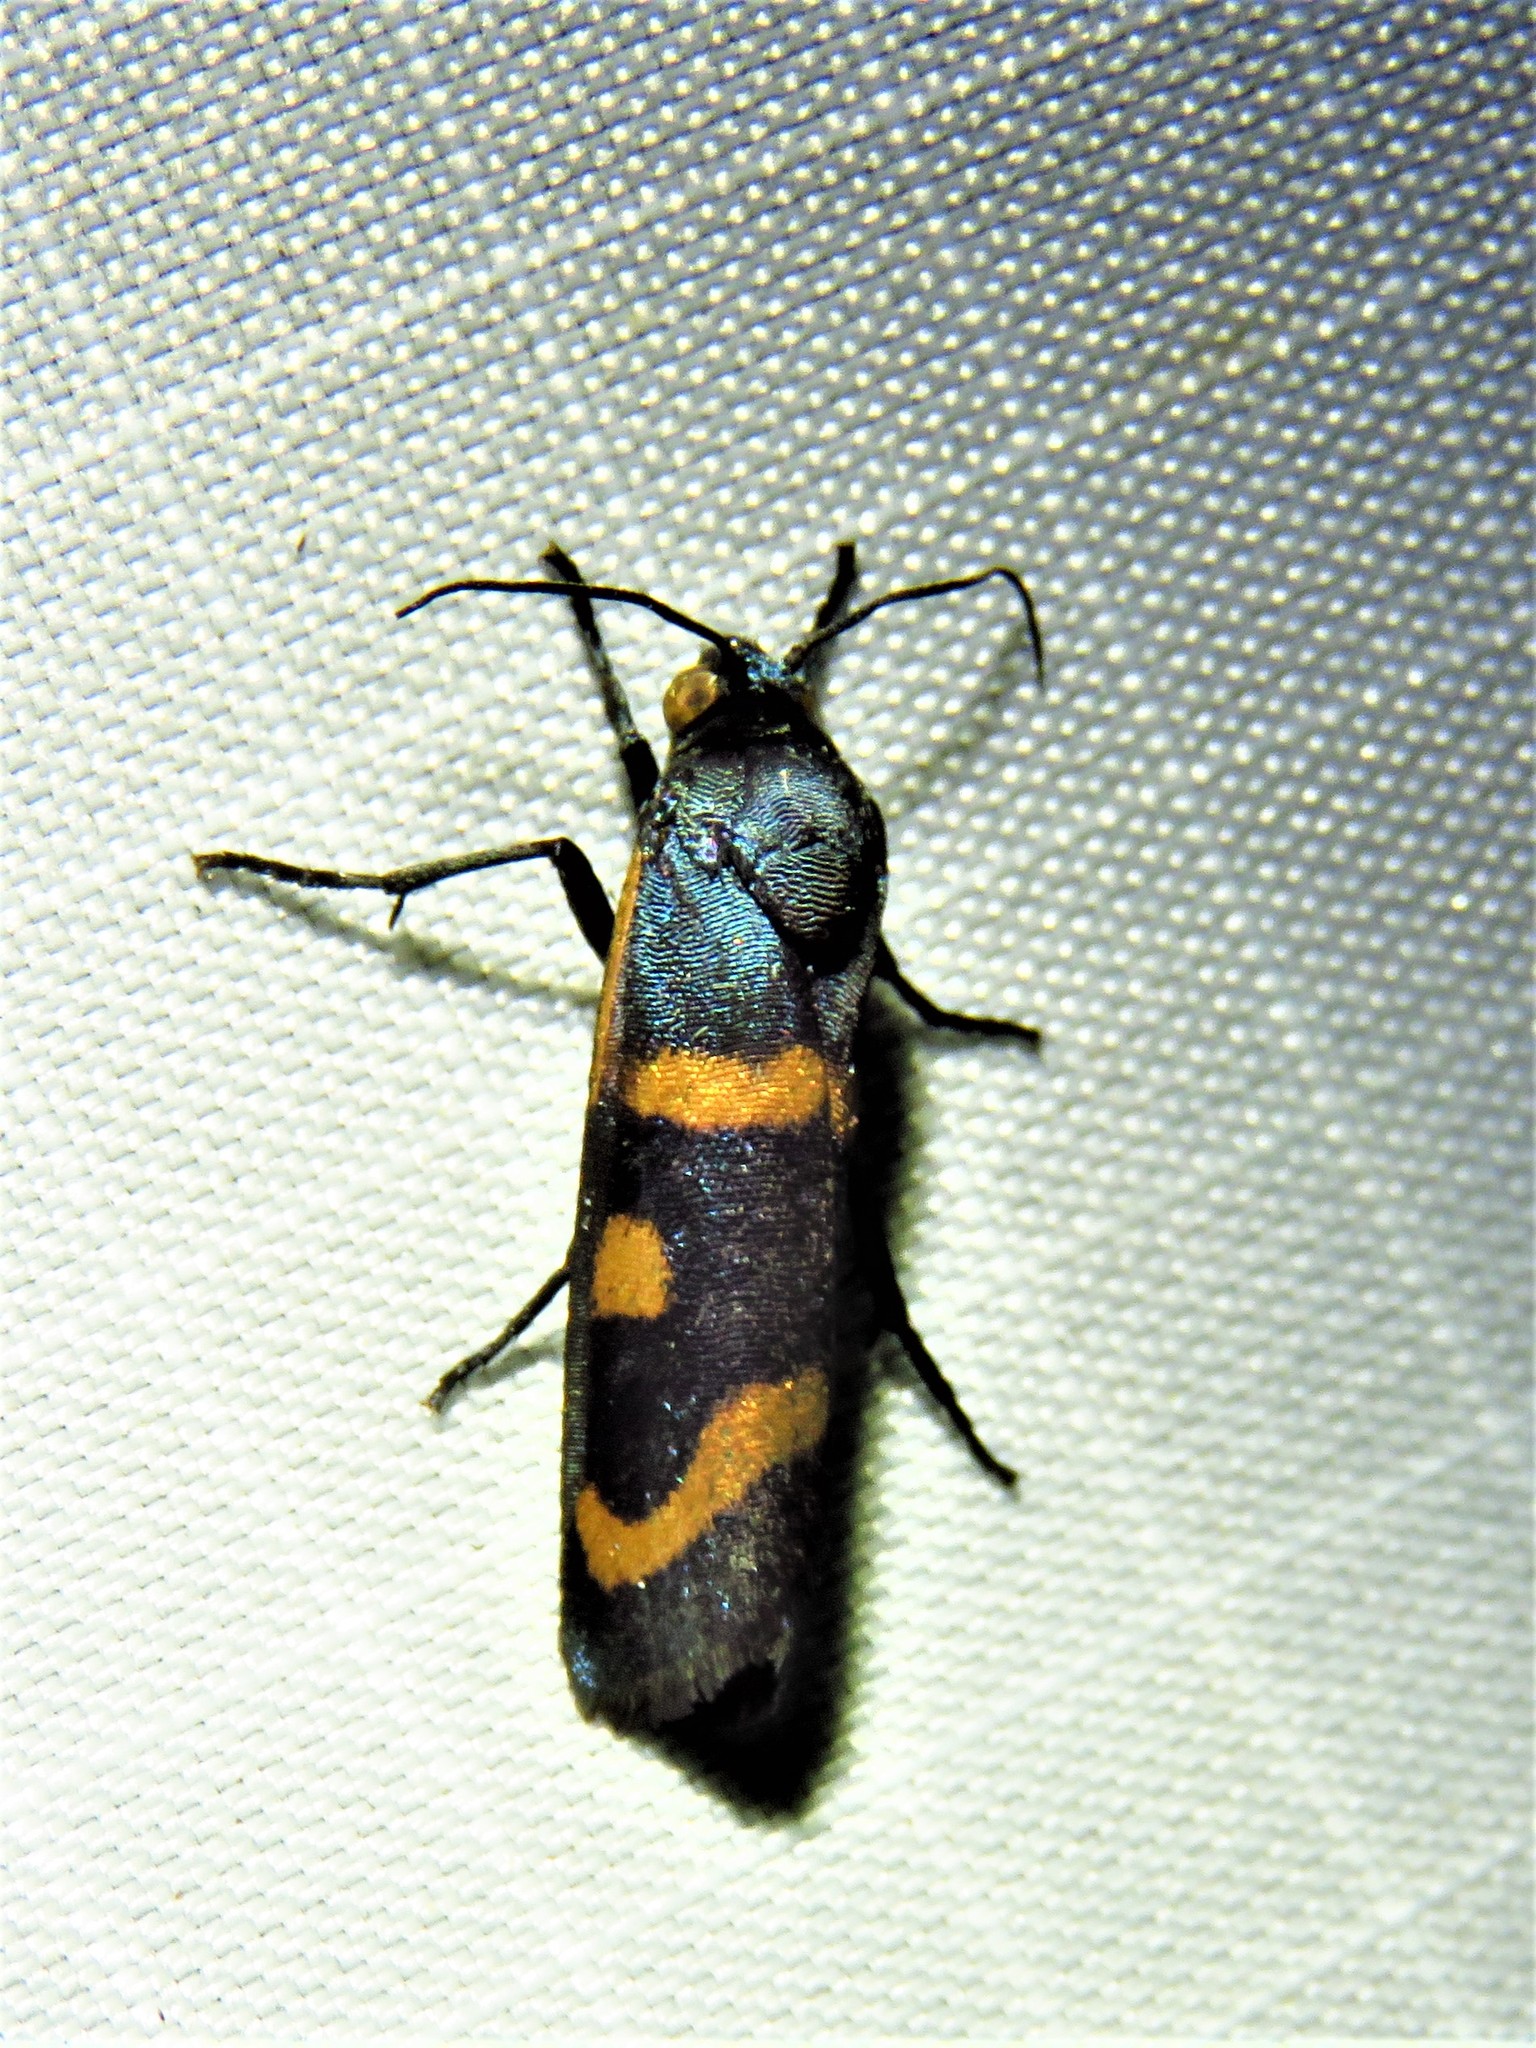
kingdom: Animalia
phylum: Arthropoda
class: Insecta
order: Lepidoptera
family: Noctuidae
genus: Cydosia
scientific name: Cydosia aurivitta
